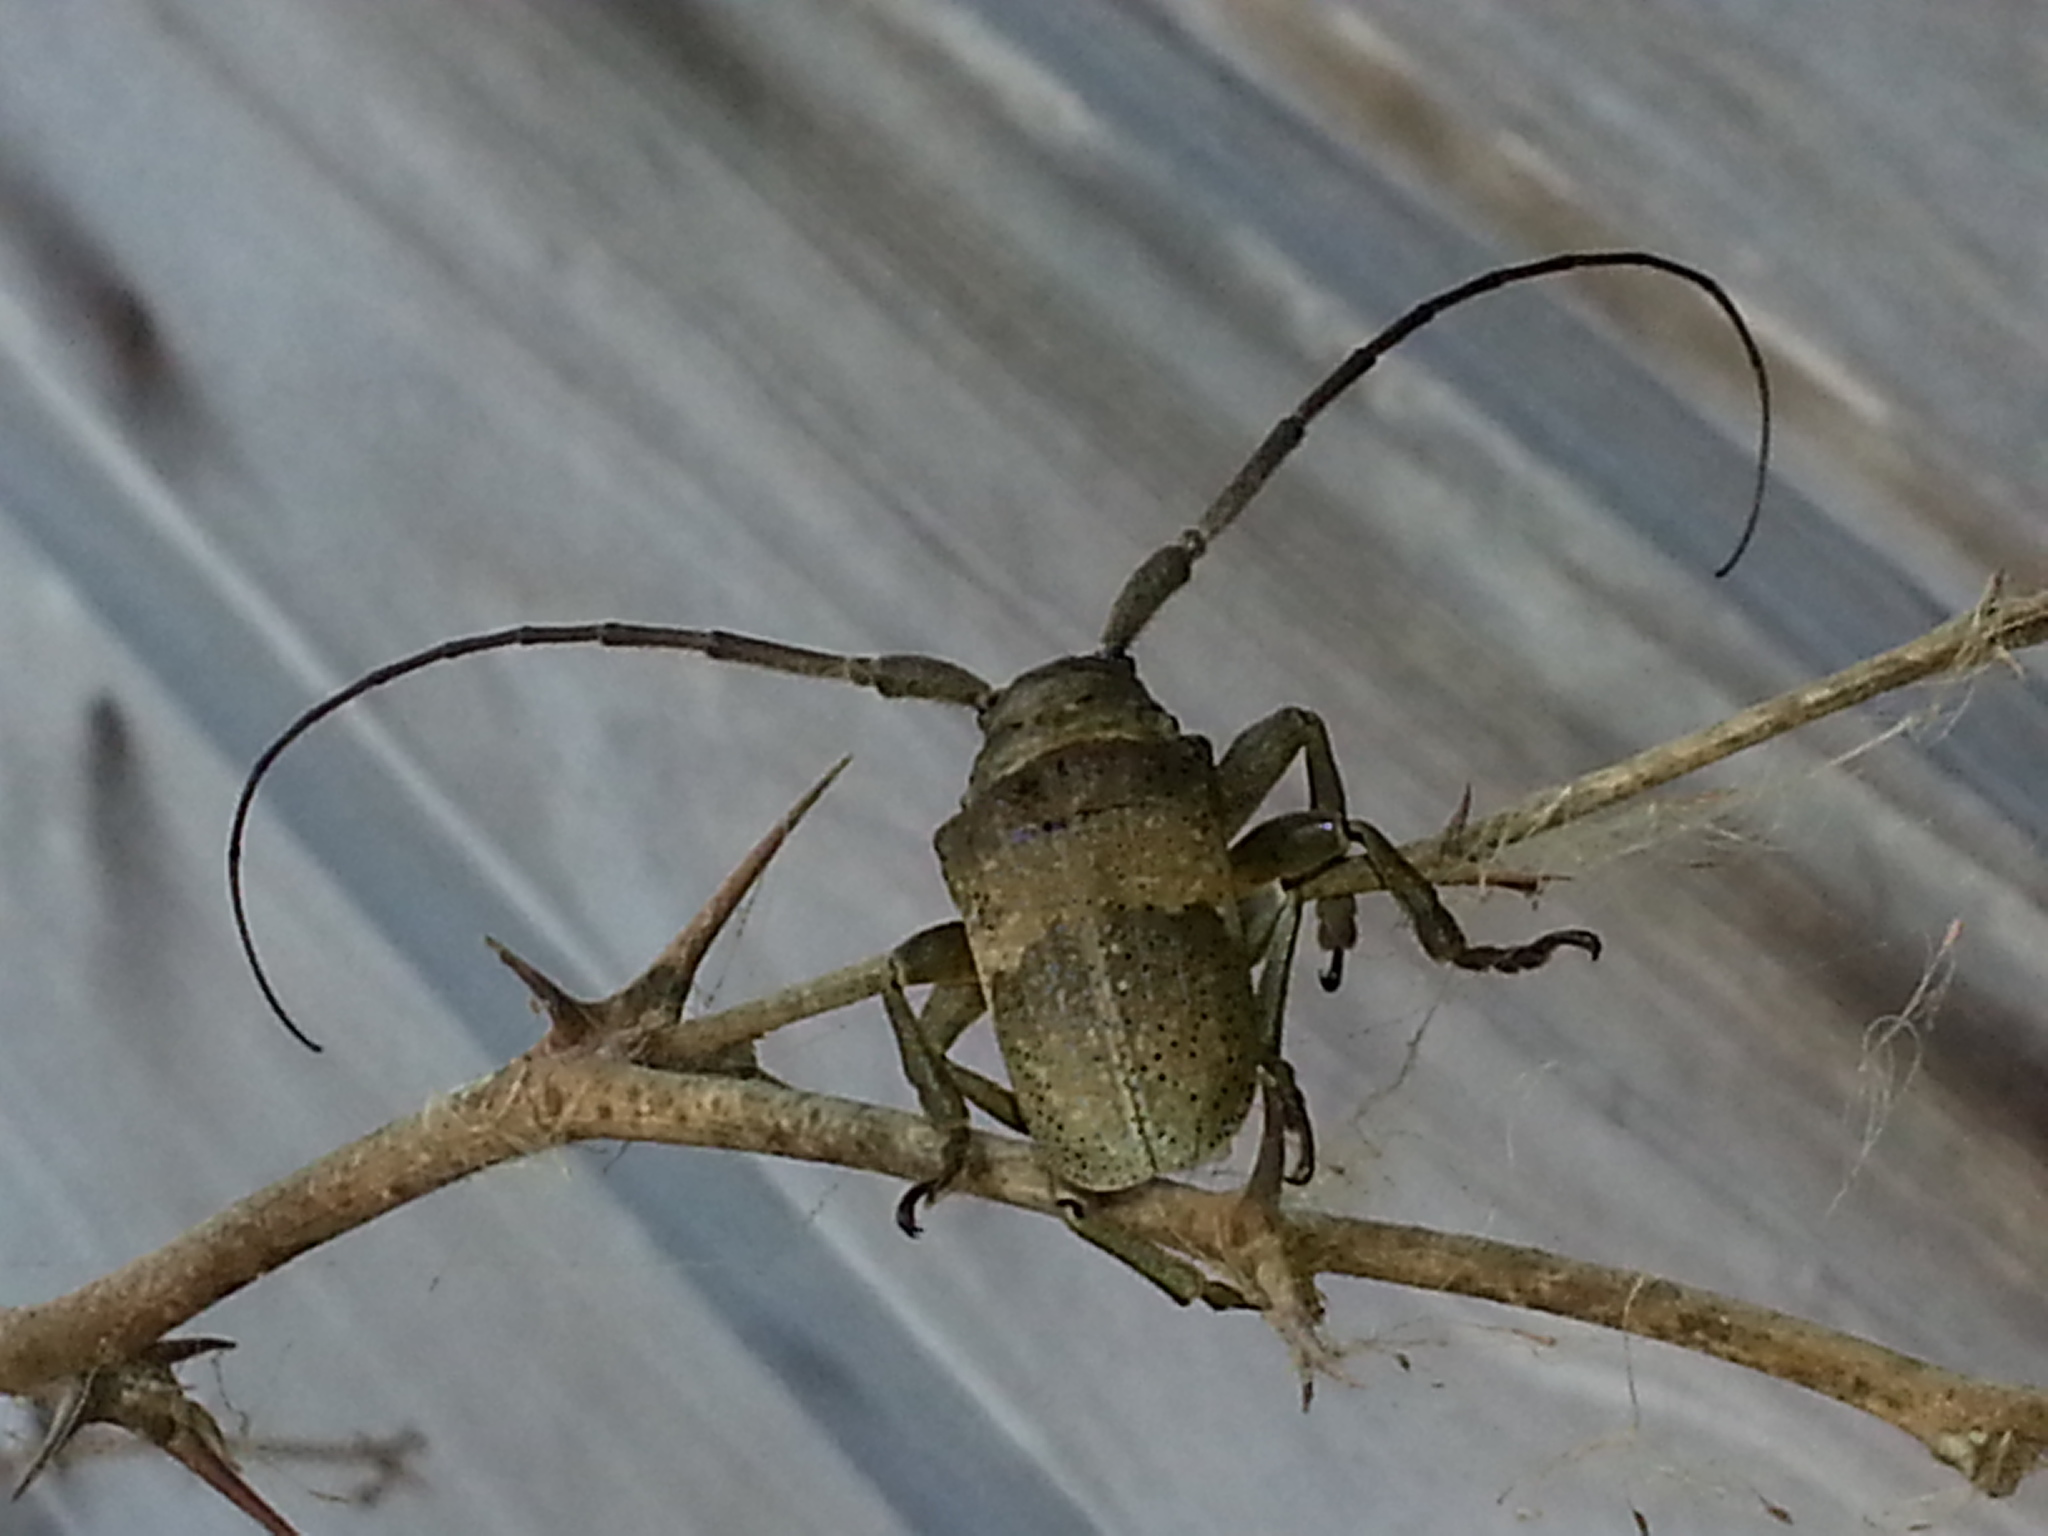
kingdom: Animalia
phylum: Arthropoda
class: Insecta
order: Coleoptera
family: Cerambycidae
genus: Oncideres
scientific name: Oncideres pustulata
